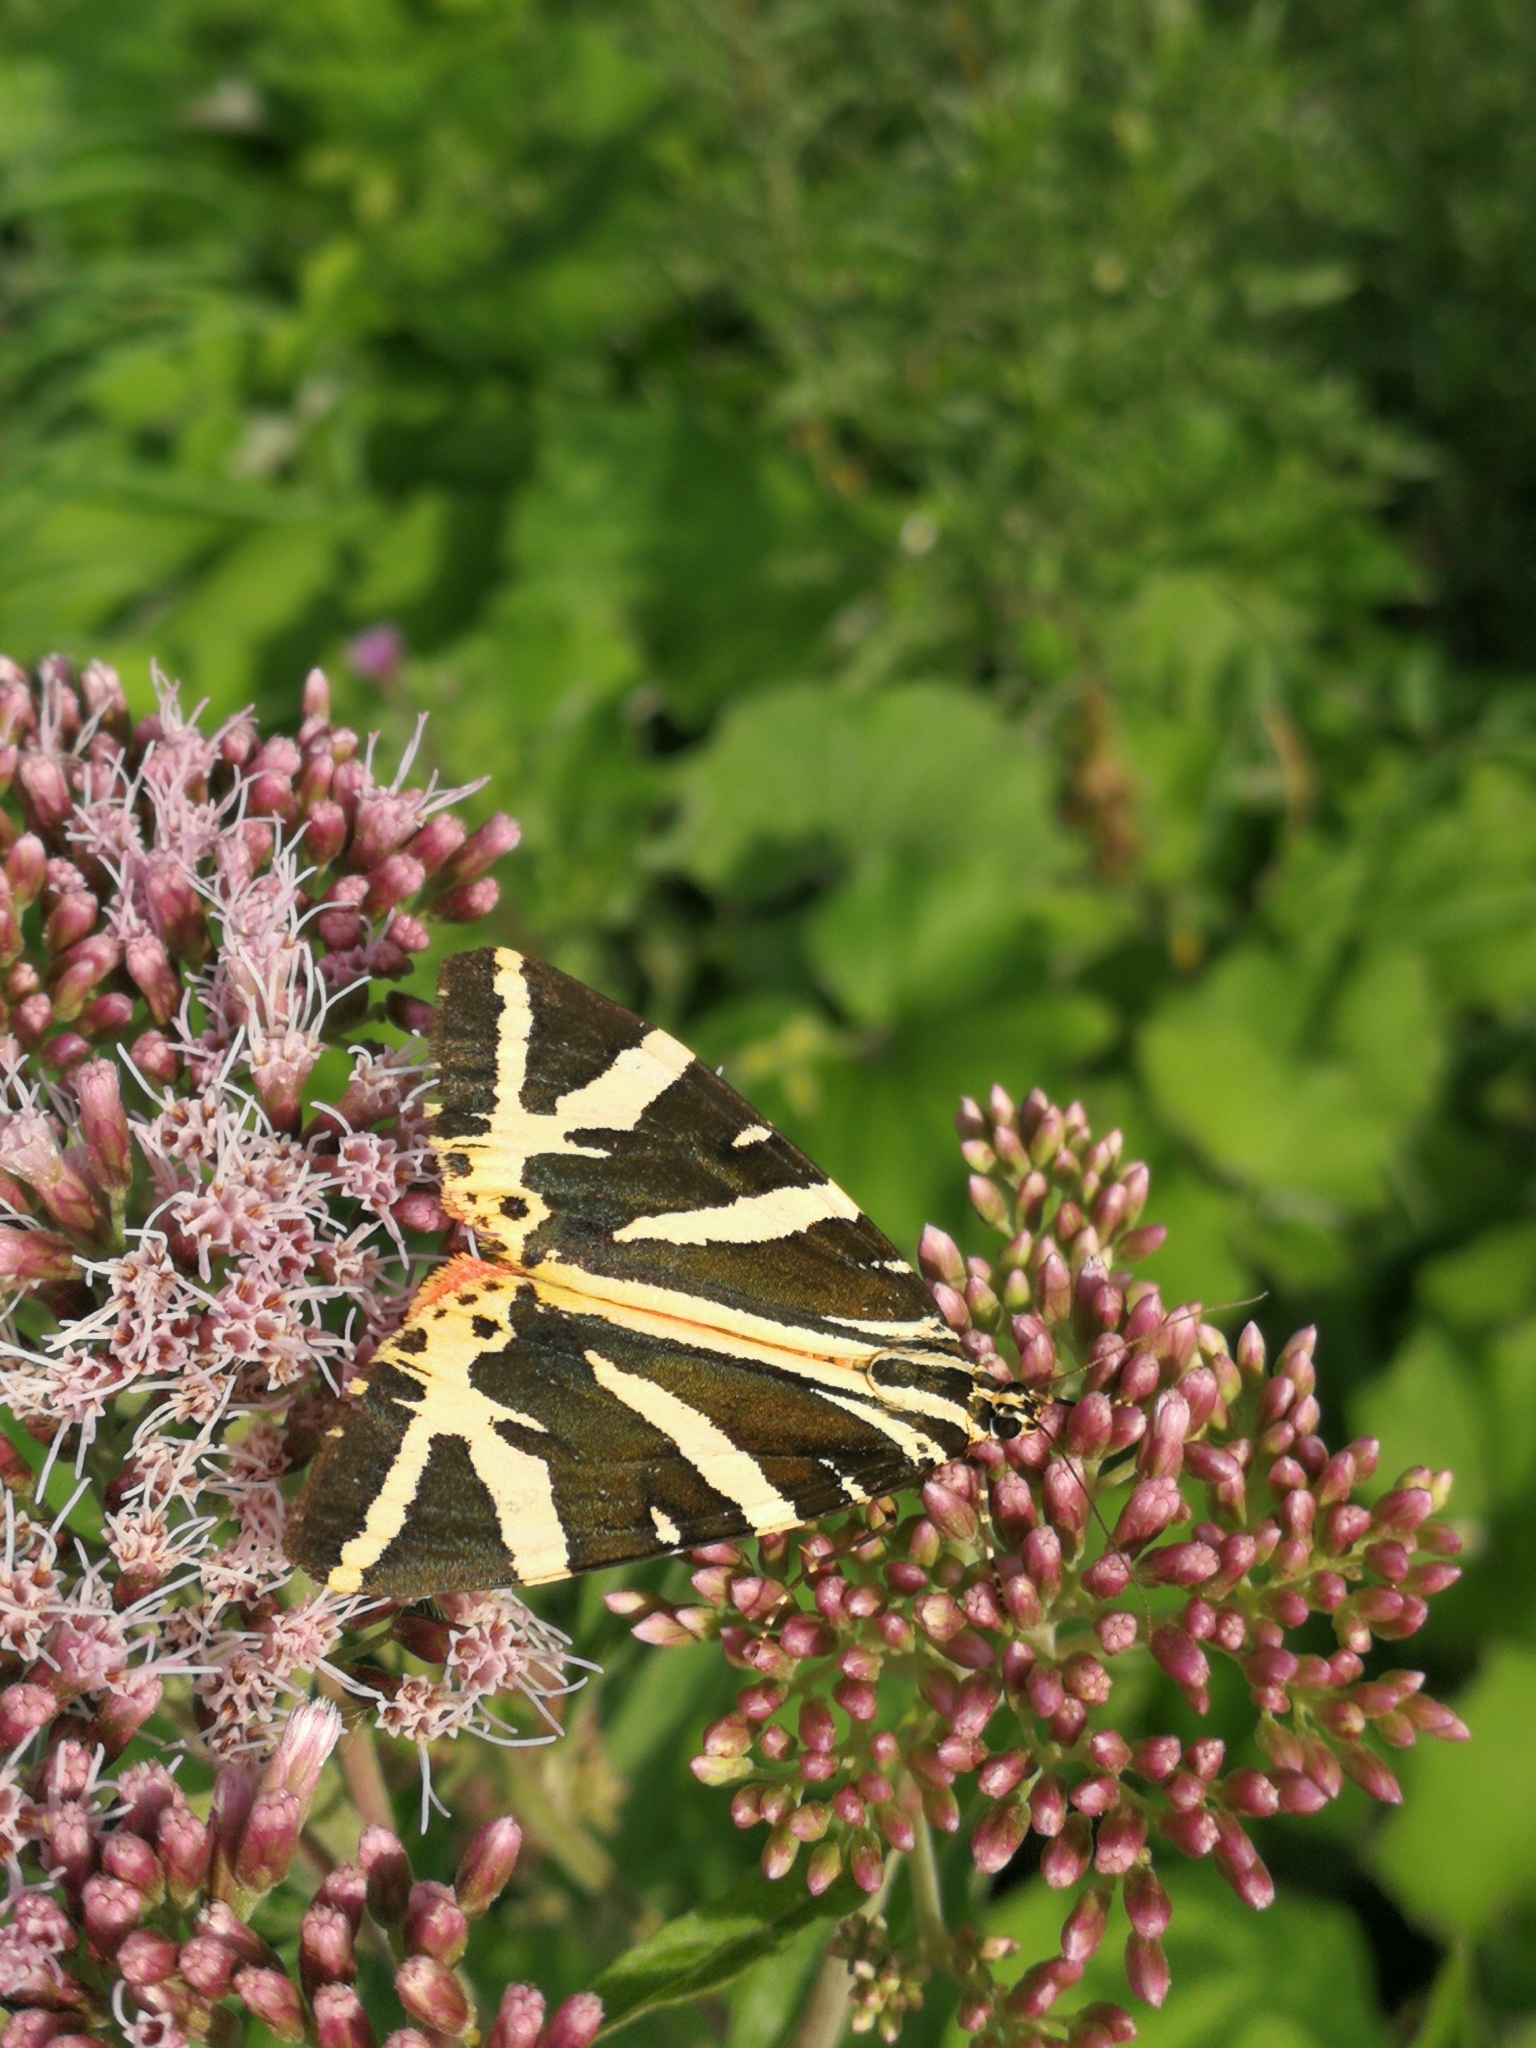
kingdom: Animalia
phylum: Arthropoda
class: Insecta
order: Lepidoptera
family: Erebidae
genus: Euplagia
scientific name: Euplagia quadripunctaria
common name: Jersey tiger
